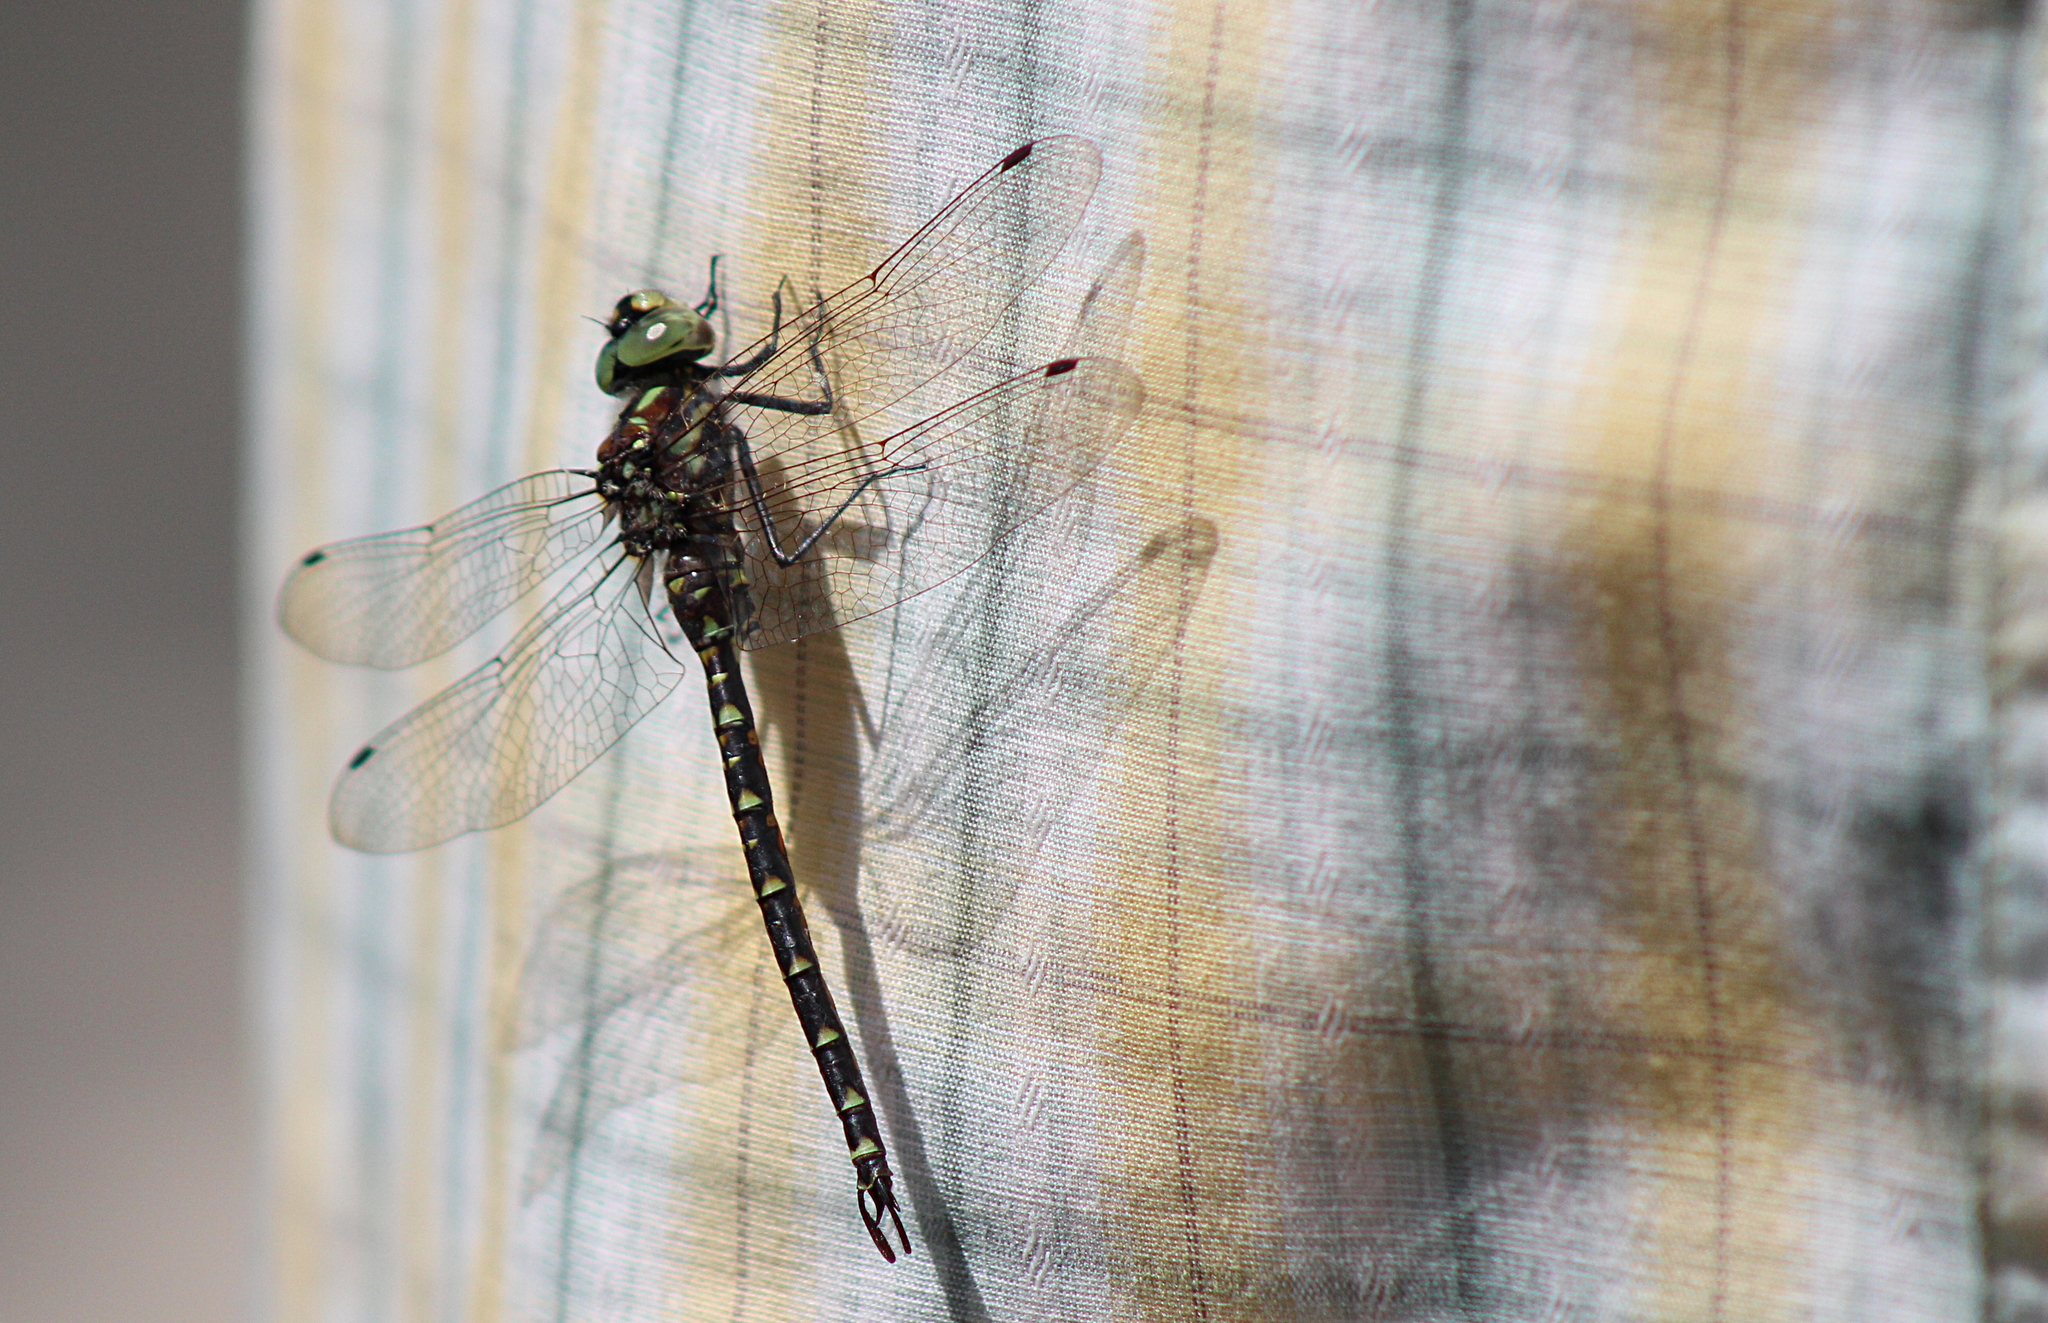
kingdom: Animalia
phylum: Arthropoda
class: Insecta
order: Odonata
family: Aeshnidae
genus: Gomphaeschna
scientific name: Gomphaeschna furcillata
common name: Harlequin darner
